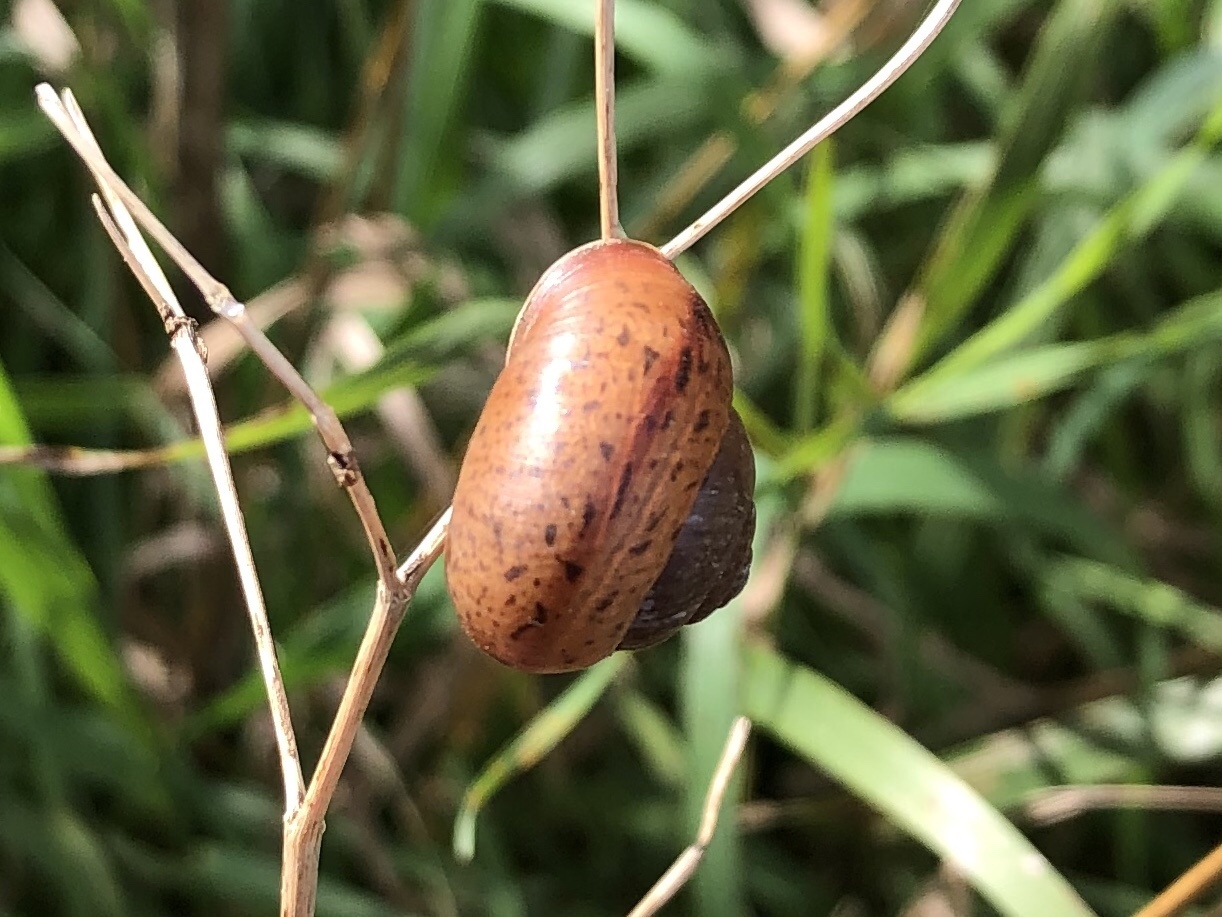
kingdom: Animalia
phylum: Mollusca
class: Gastropoda
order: Stylommatophora
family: Camaenidae
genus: Fruticicola
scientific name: Fruticicola fruticum
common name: Bush snail
